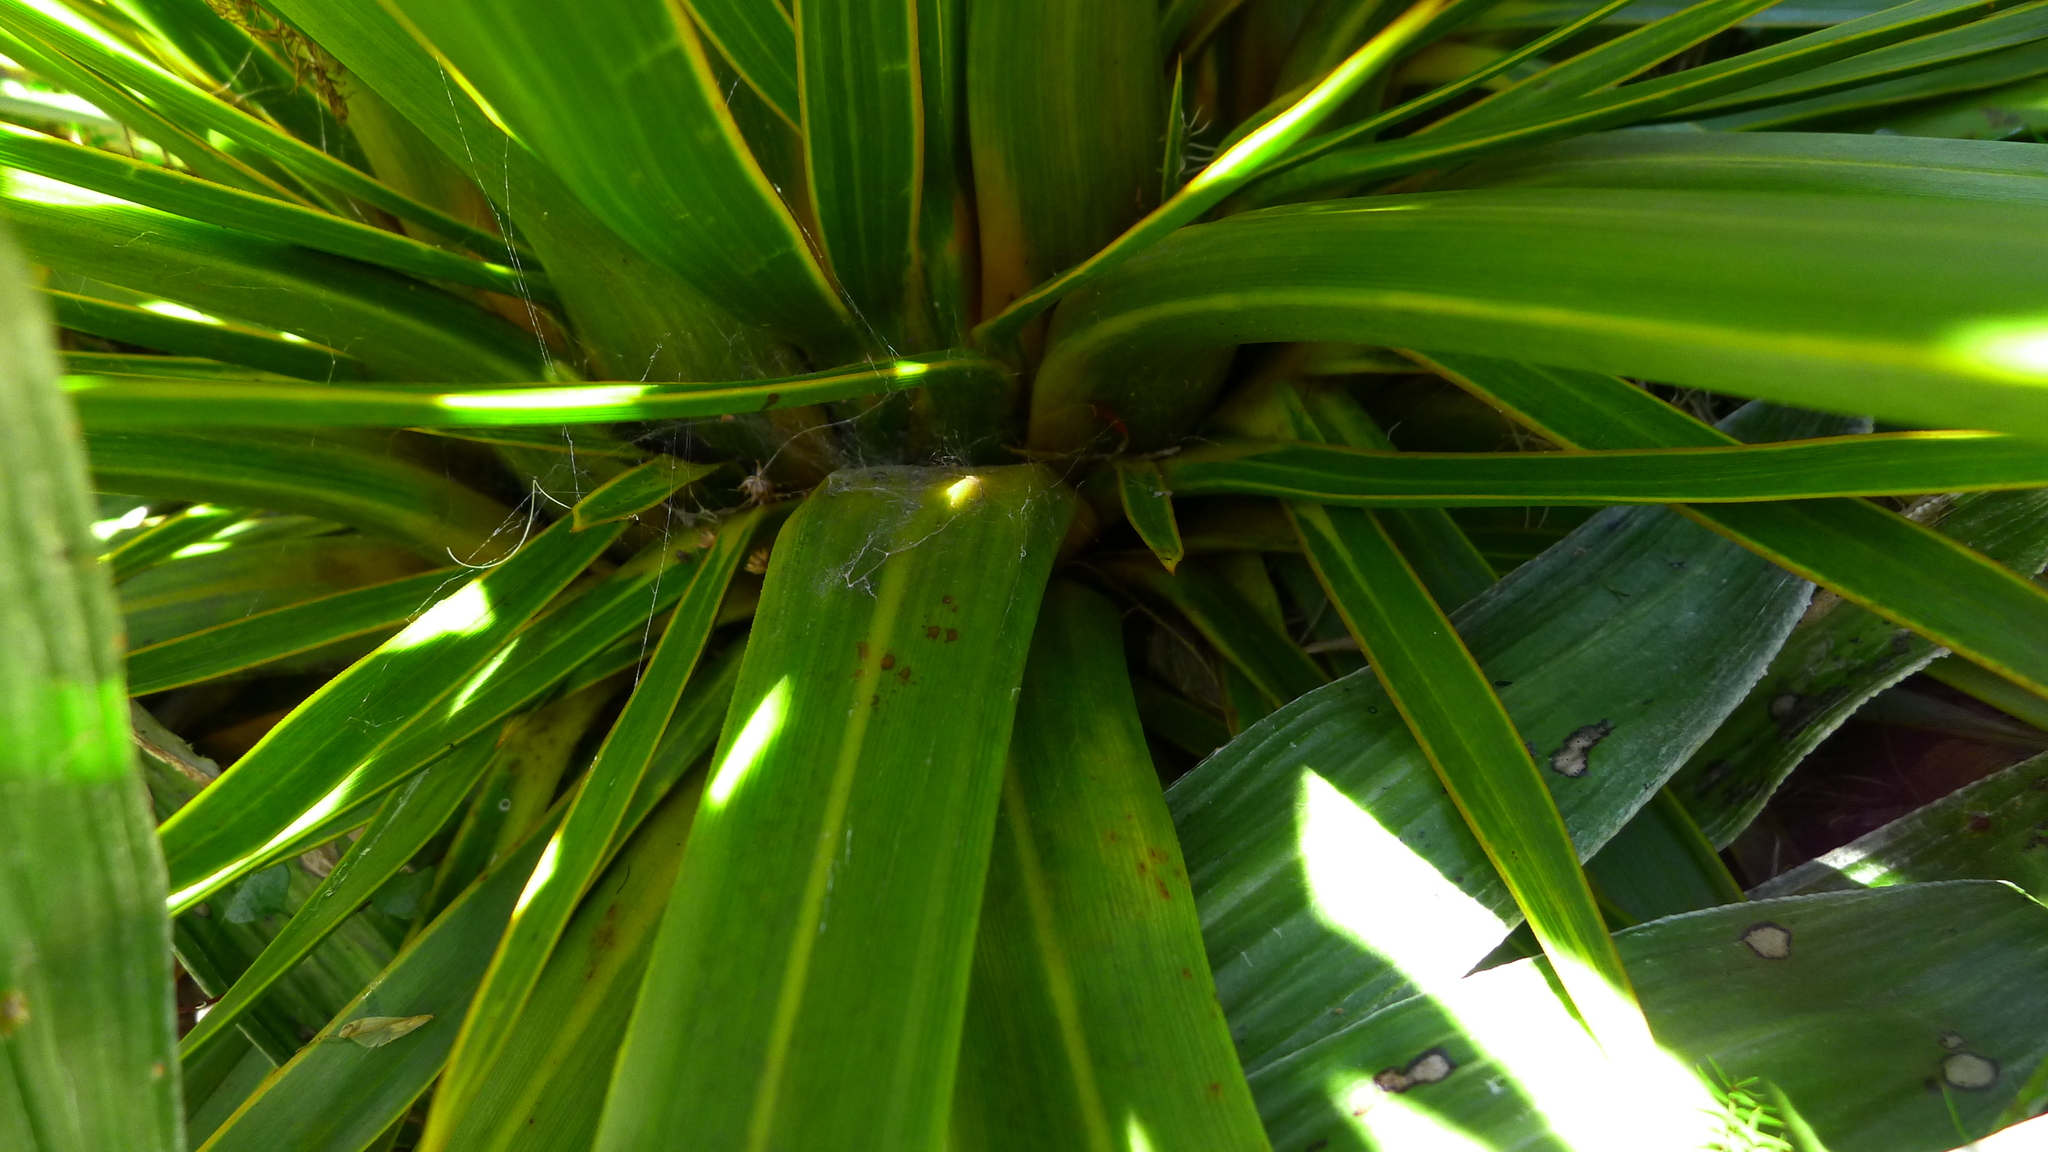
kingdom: Plantae
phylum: Tracheophyta
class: Magnoliopsida
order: Apiales
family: Apiaceae
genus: Aciphylla
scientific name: Aciphylla horrida
